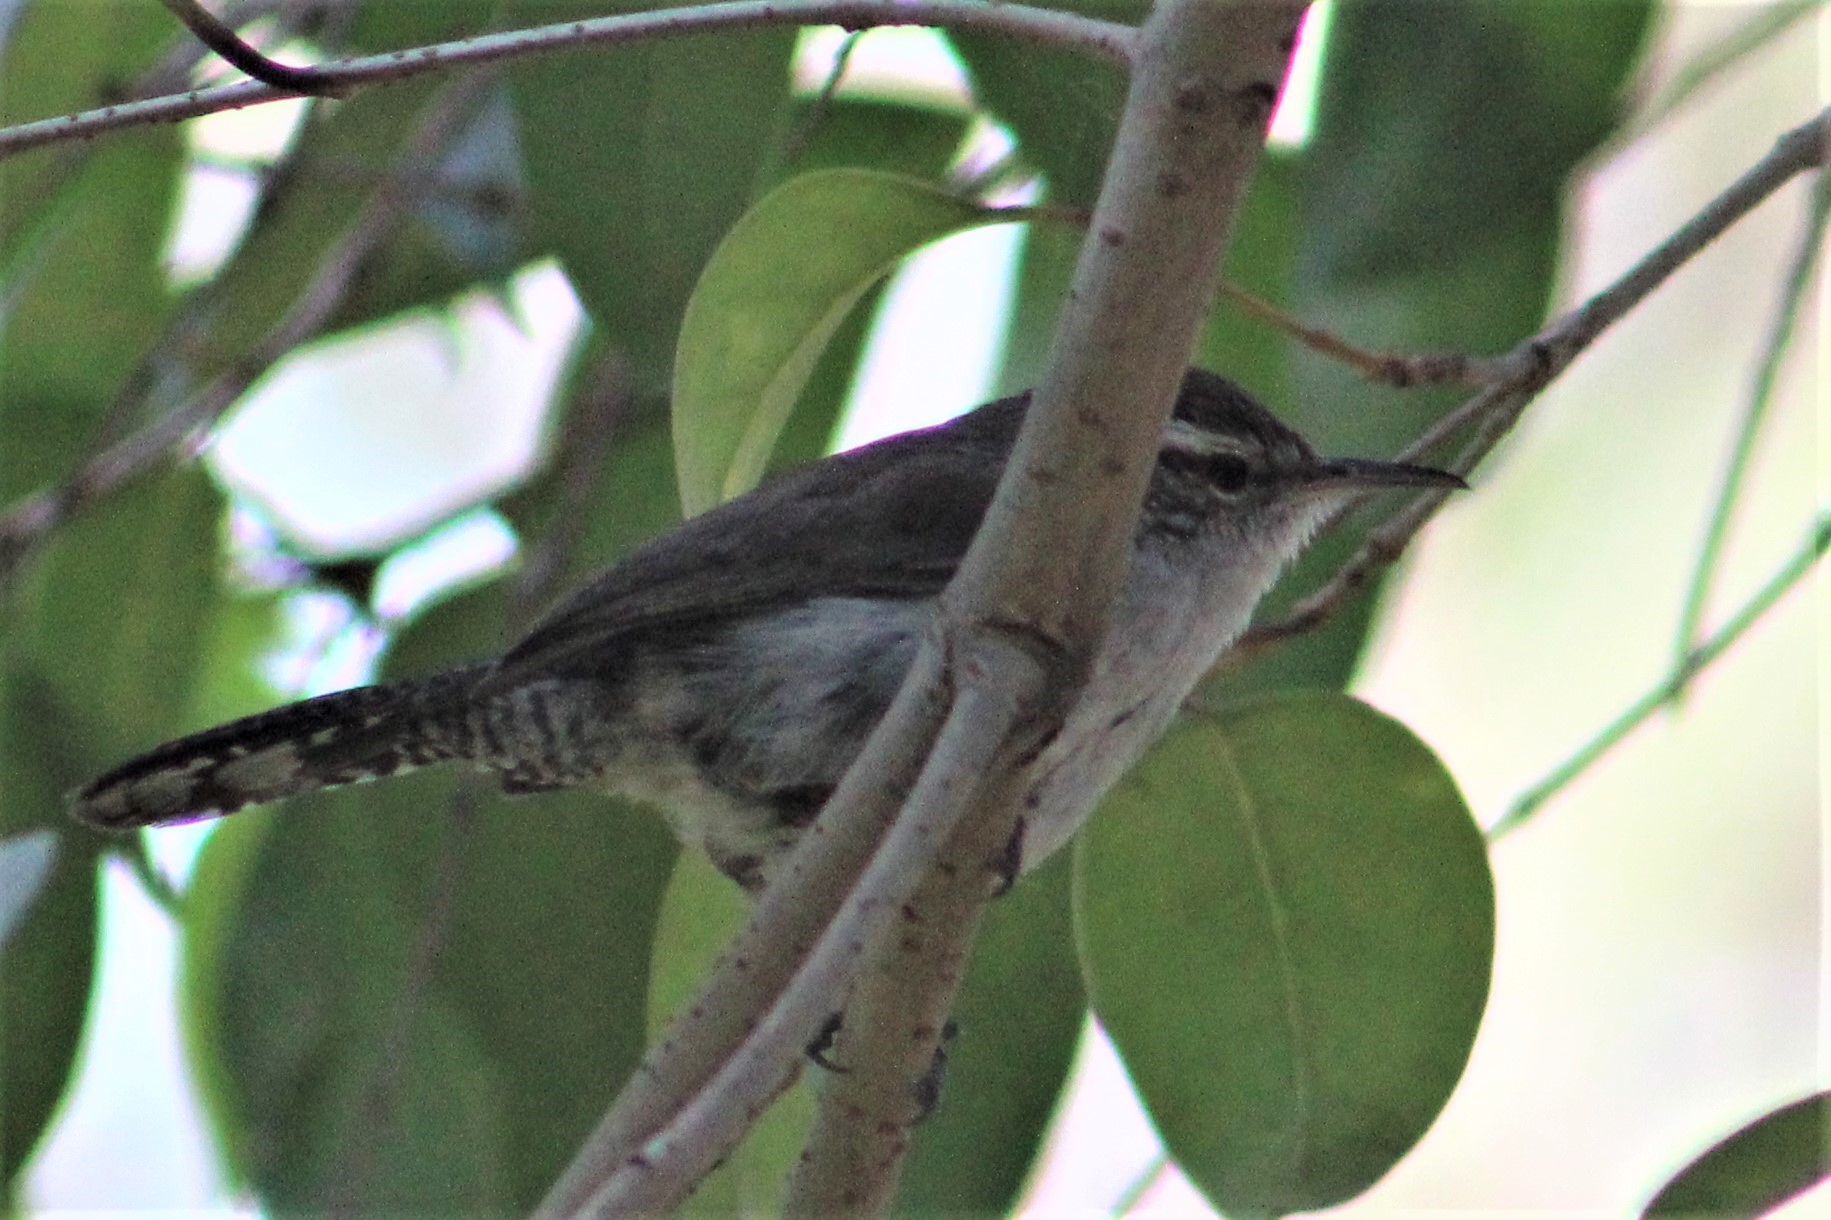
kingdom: Animalia
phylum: Chordata
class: Aves
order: Passeriformes
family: Troglodytidae
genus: Thryomanes
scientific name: Thryomanes bewickii
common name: Bewick's wren
